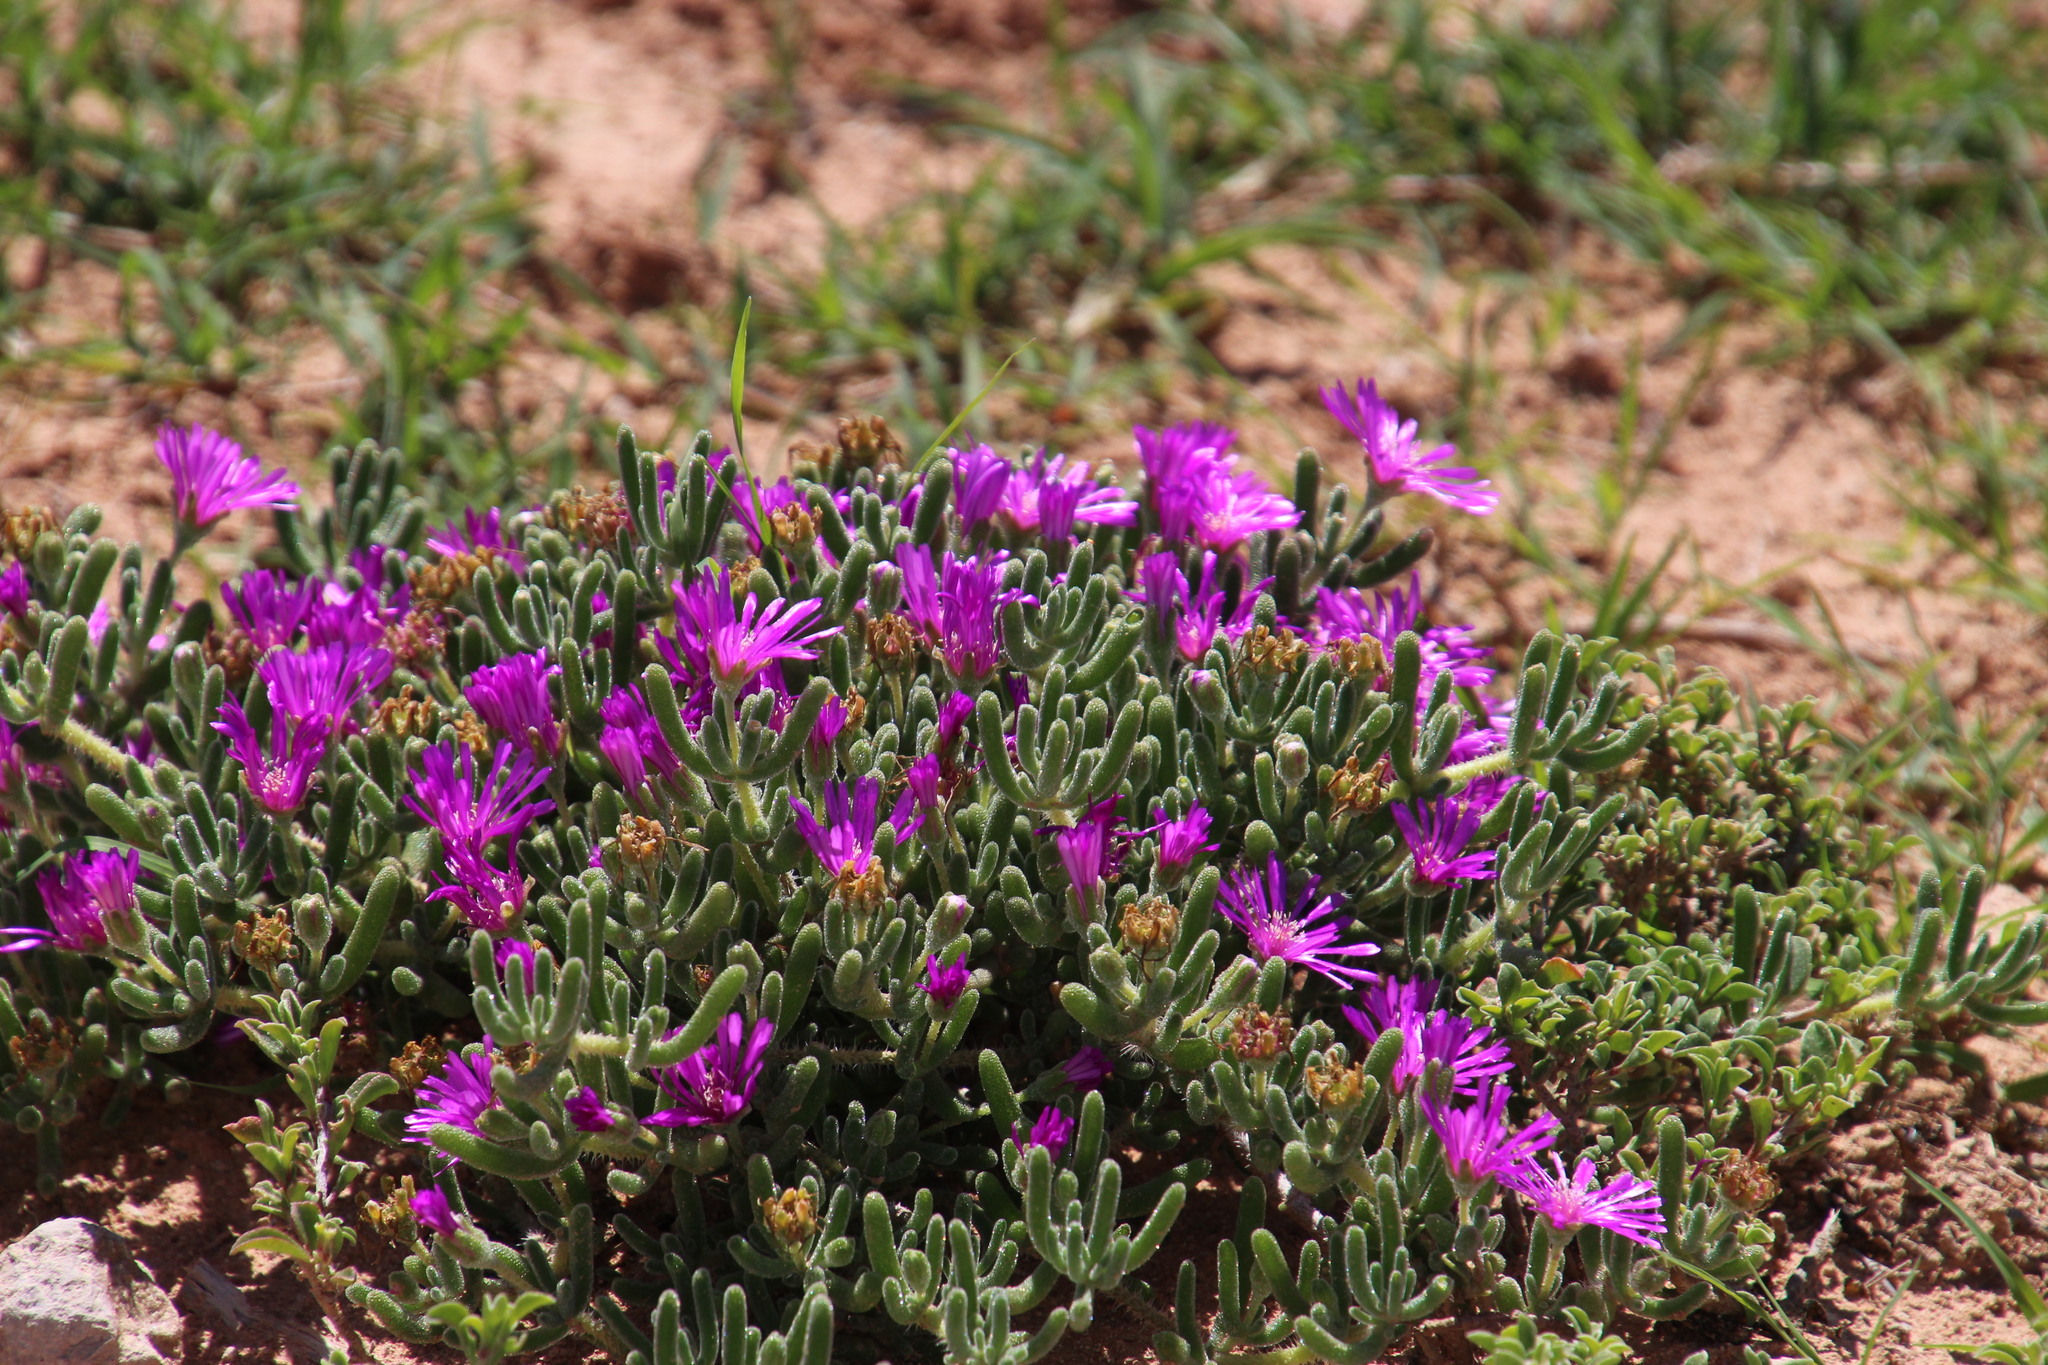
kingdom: Plantae
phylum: Tracheophyta
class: Magnoliopsida
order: Caryophyllales
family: Aizoaceae
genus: Drosanthemum
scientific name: Drosanthemum hispidum
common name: Hairy dewflower
